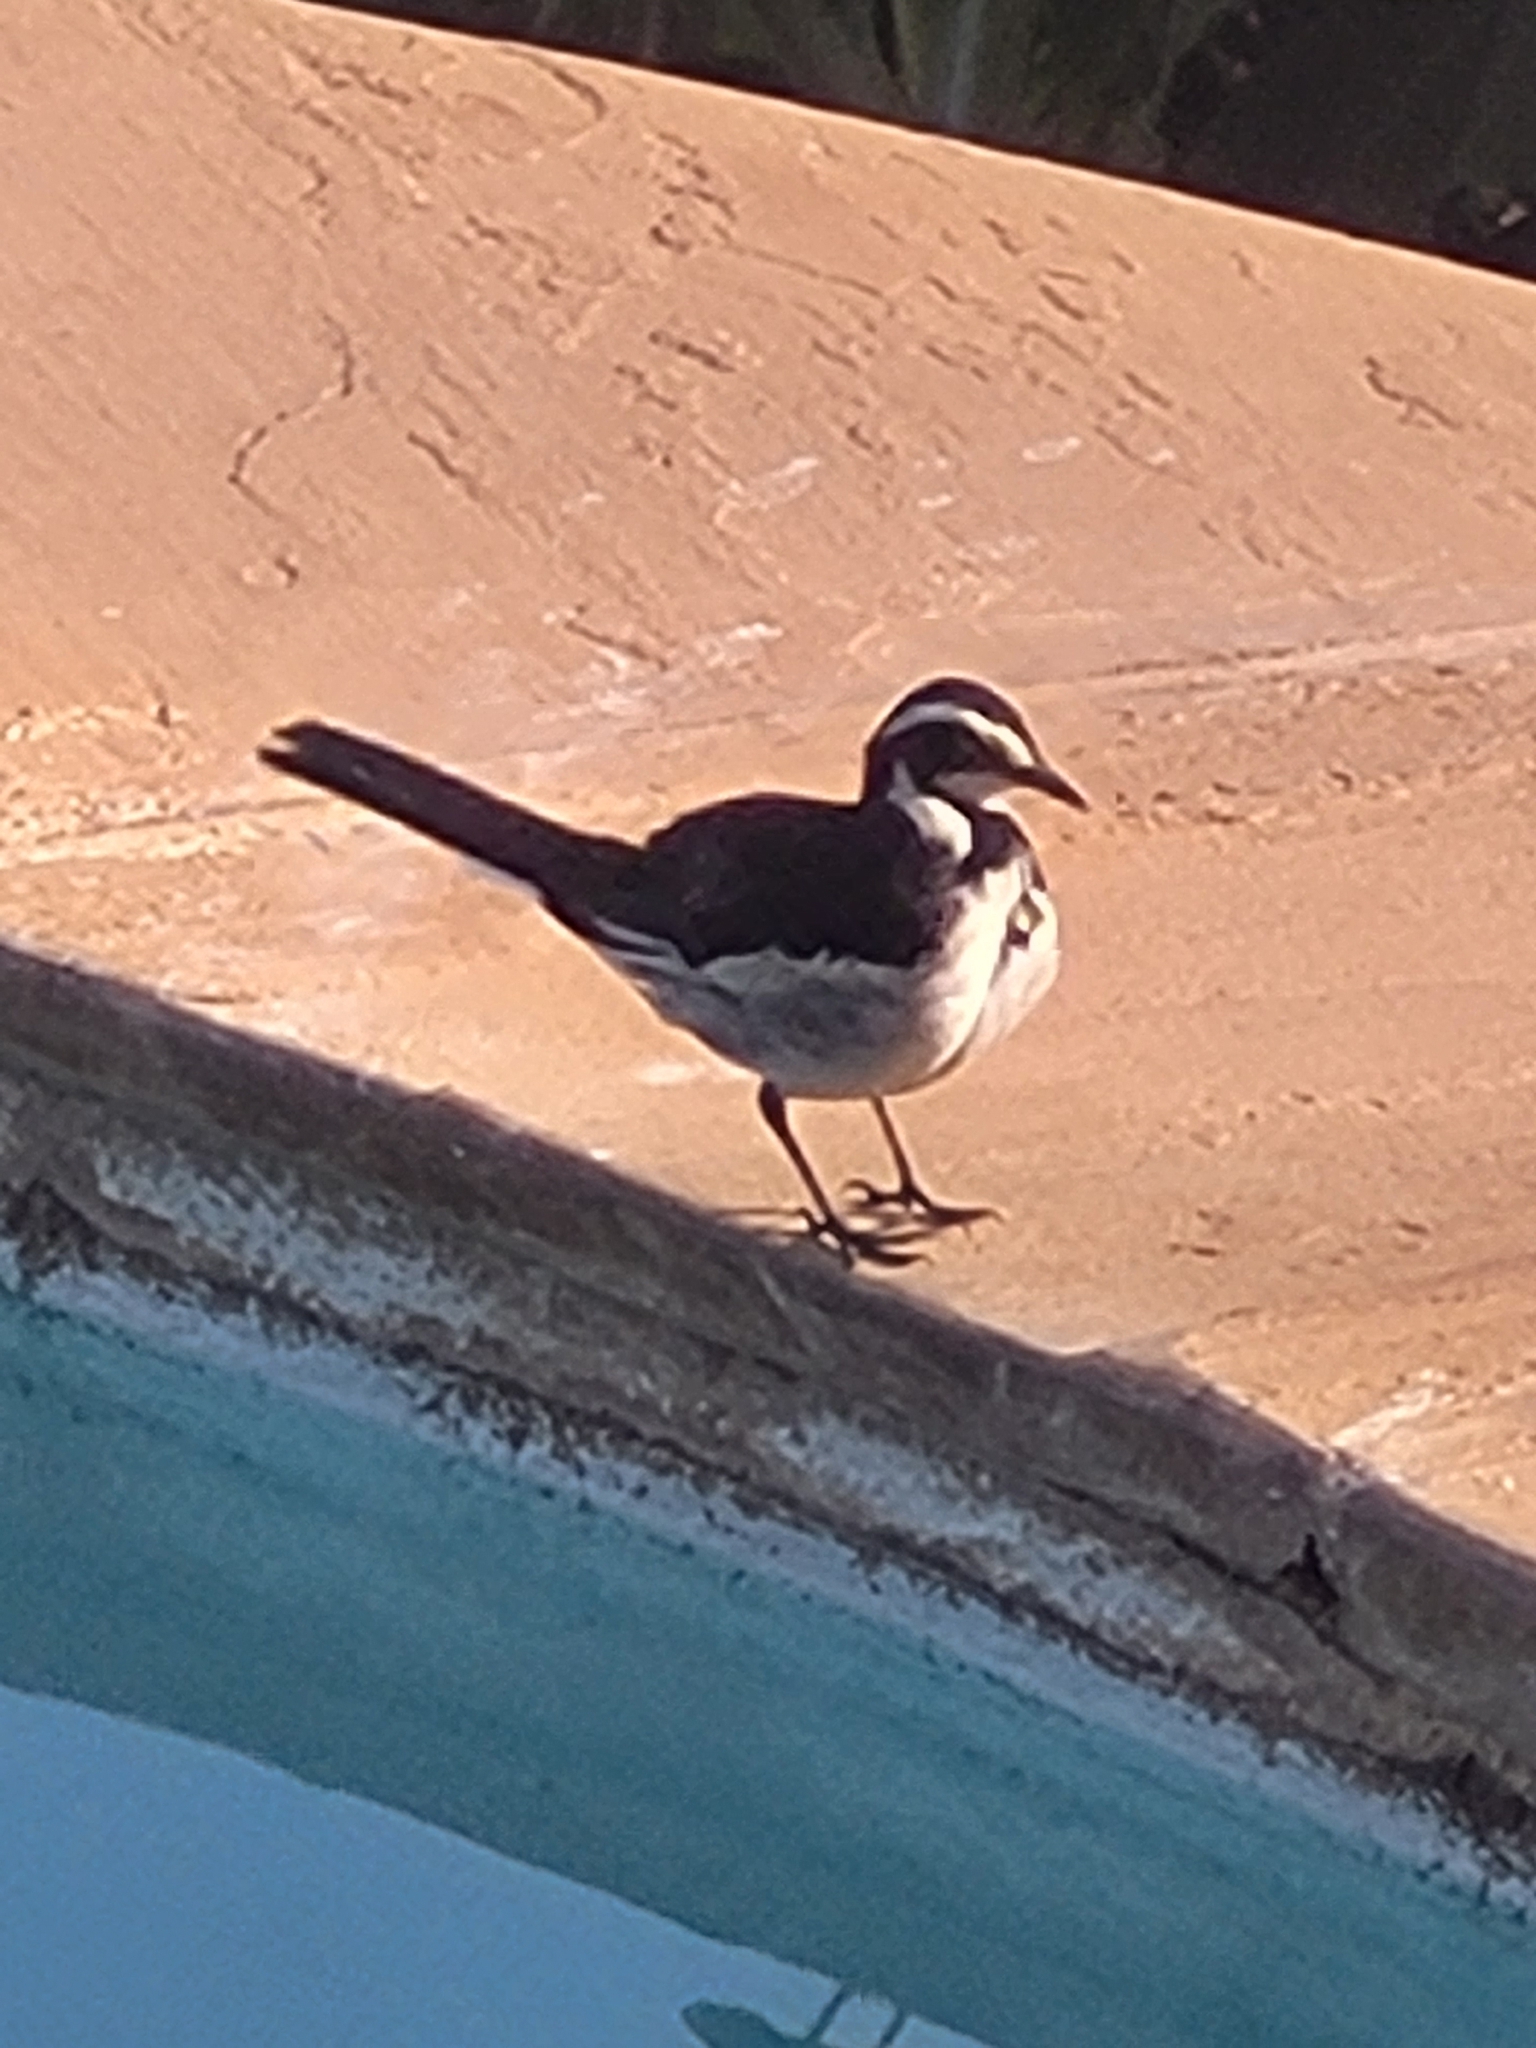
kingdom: Animalia
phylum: Chordata
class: Aves
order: Passeriformes
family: Motacillidae
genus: Motacilla
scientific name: Motacilla aguimp
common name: African pied wagtail
